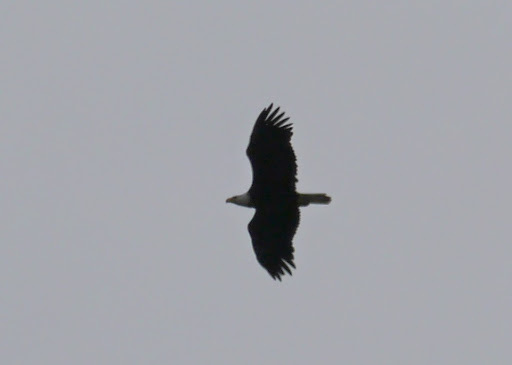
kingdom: Animalia
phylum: Chordata
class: Aves
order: Accipitriformes
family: Accipitridae
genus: Haliaeetus
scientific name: Haliaeetus leucocephalus
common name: Bald eagle
